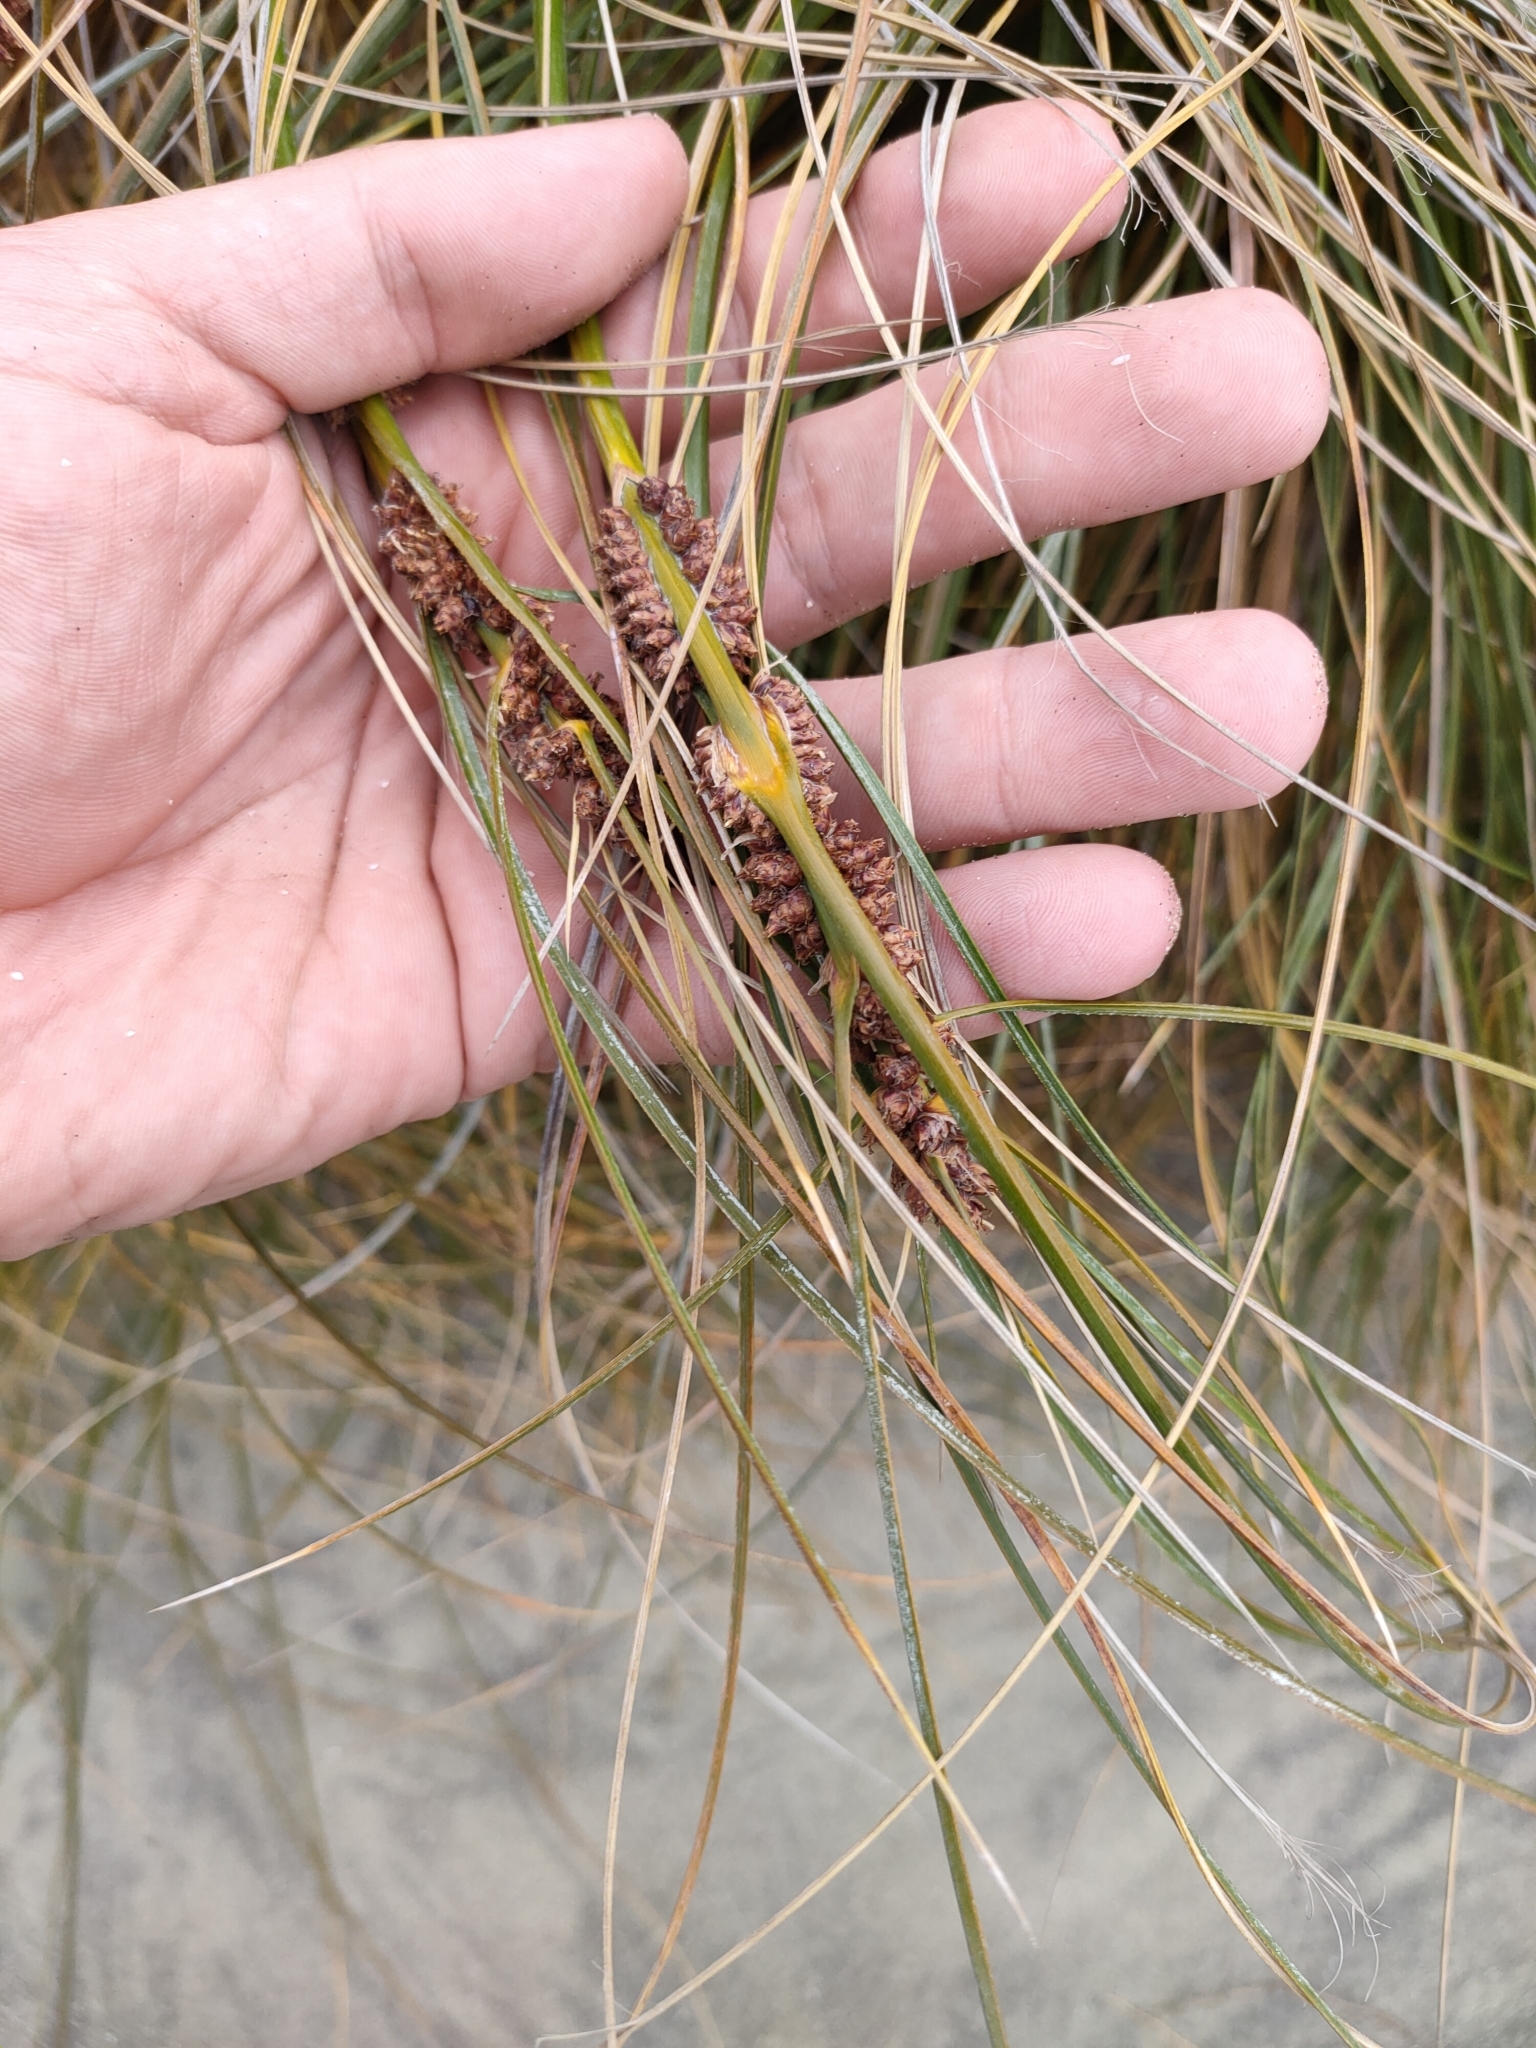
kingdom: Plantae
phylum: Tracheophyta
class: Liliopsida
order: Poales
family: Cyperaceae
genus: Ficinia
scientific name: Ficinia spiralis
